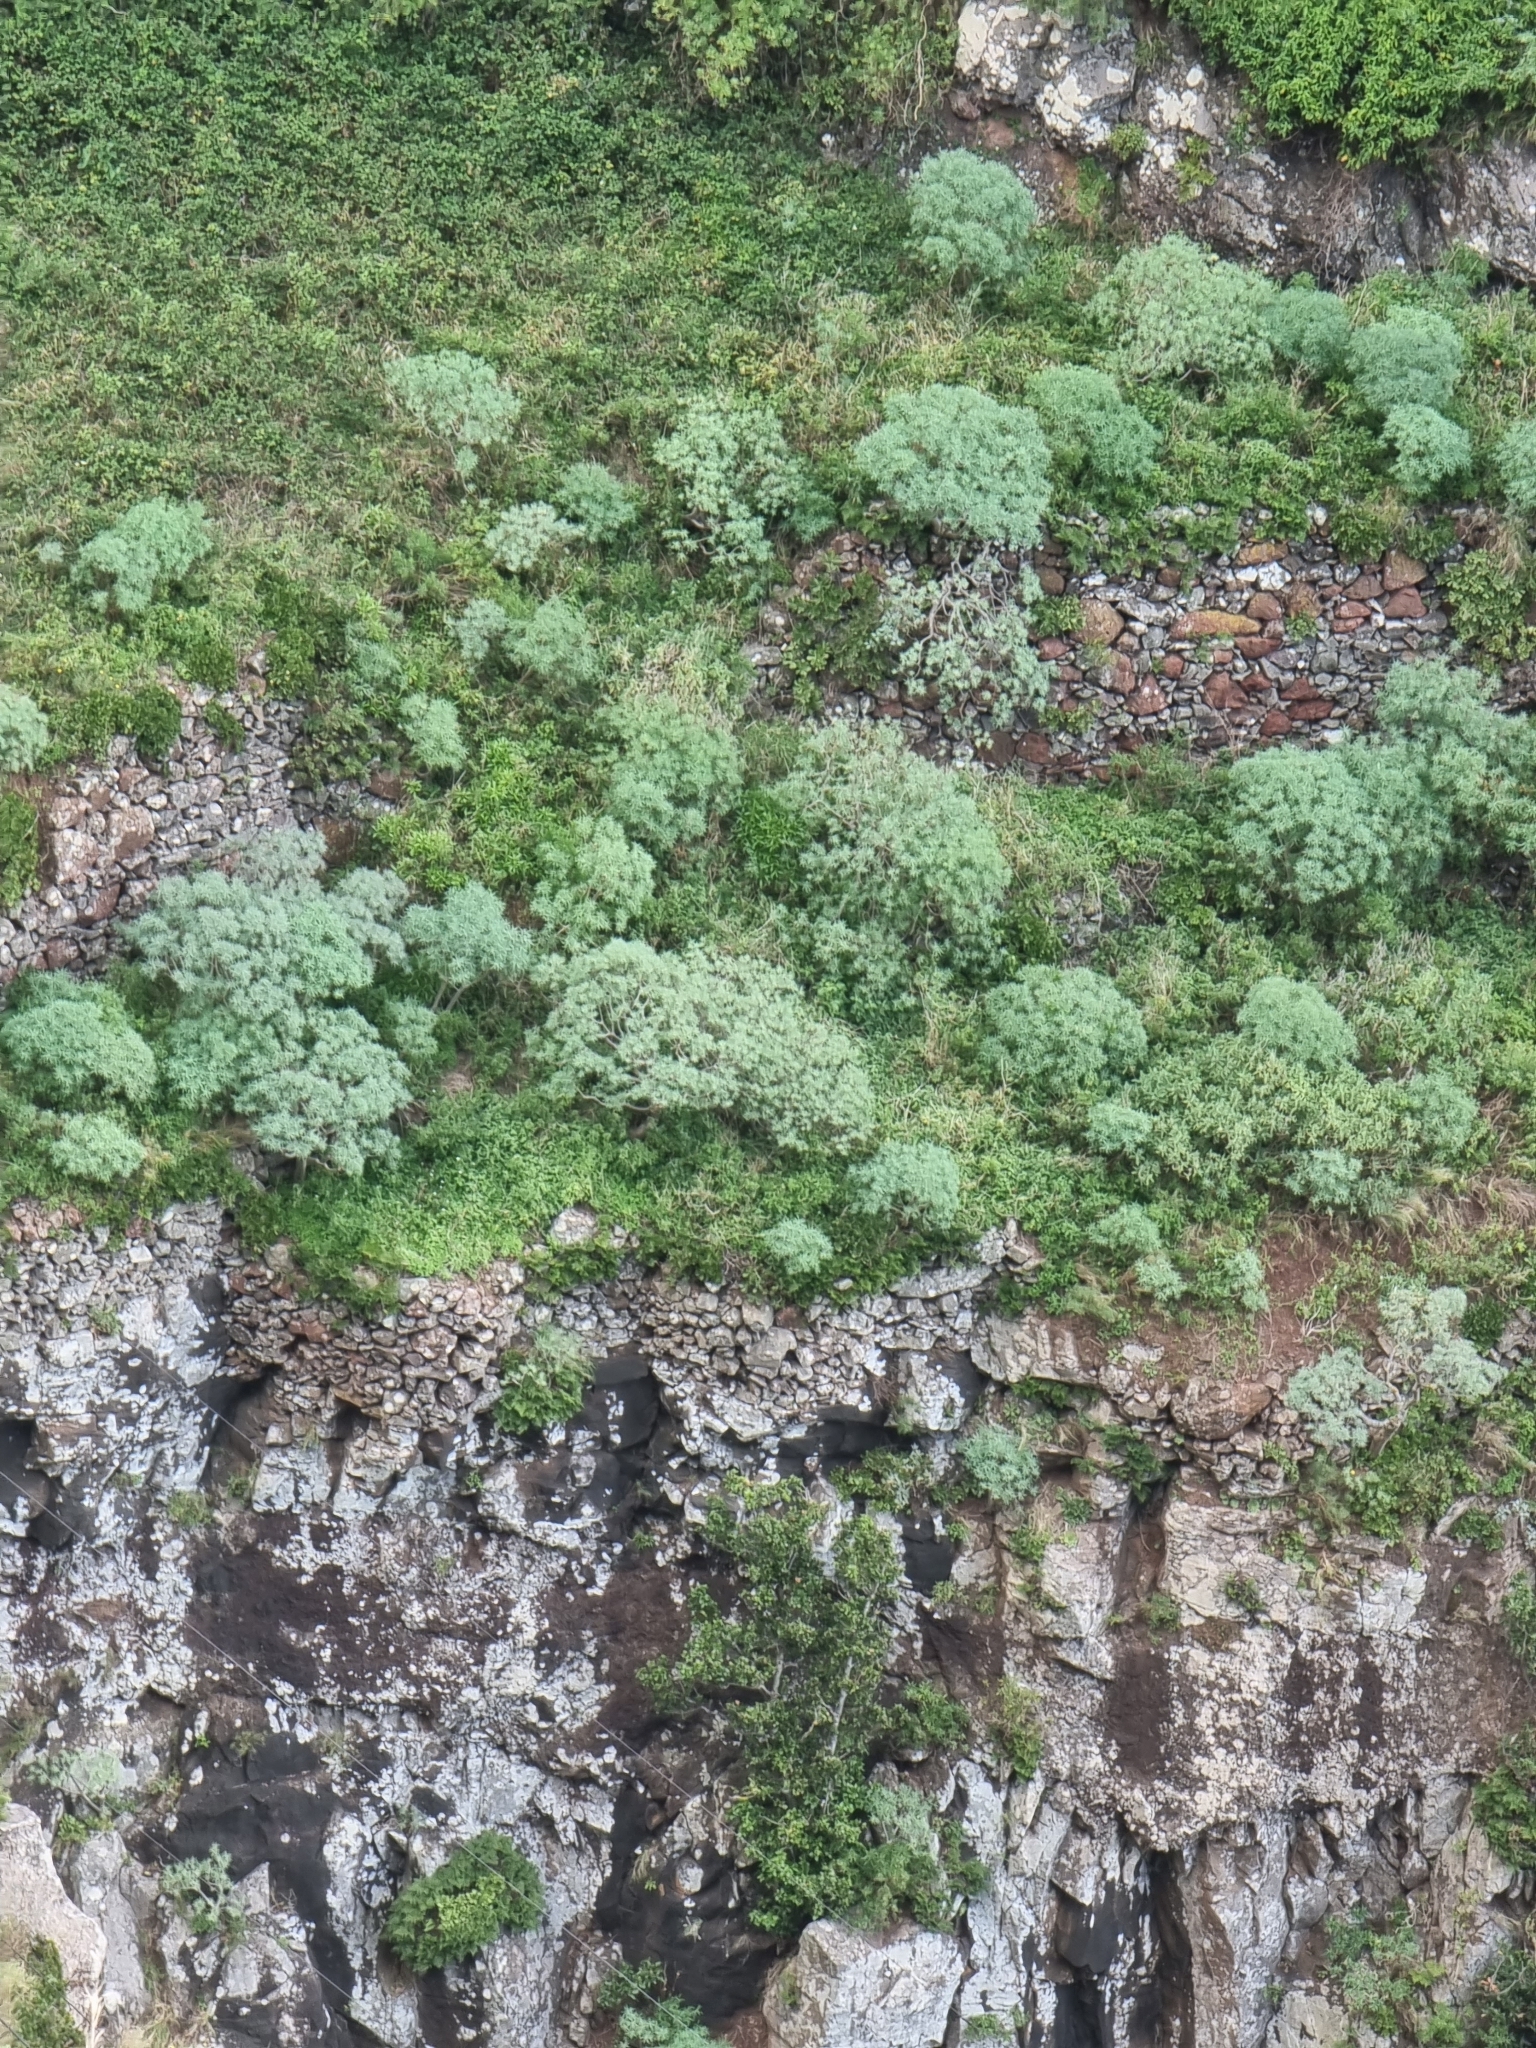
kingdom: Plantae
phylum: Tracheophyta
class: Magnoliopsida
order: Malpighiales
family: Euphorbiaceae
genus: Euphorbia
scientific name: Euphorbia piscatoria
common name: Fish-stunning spurge
